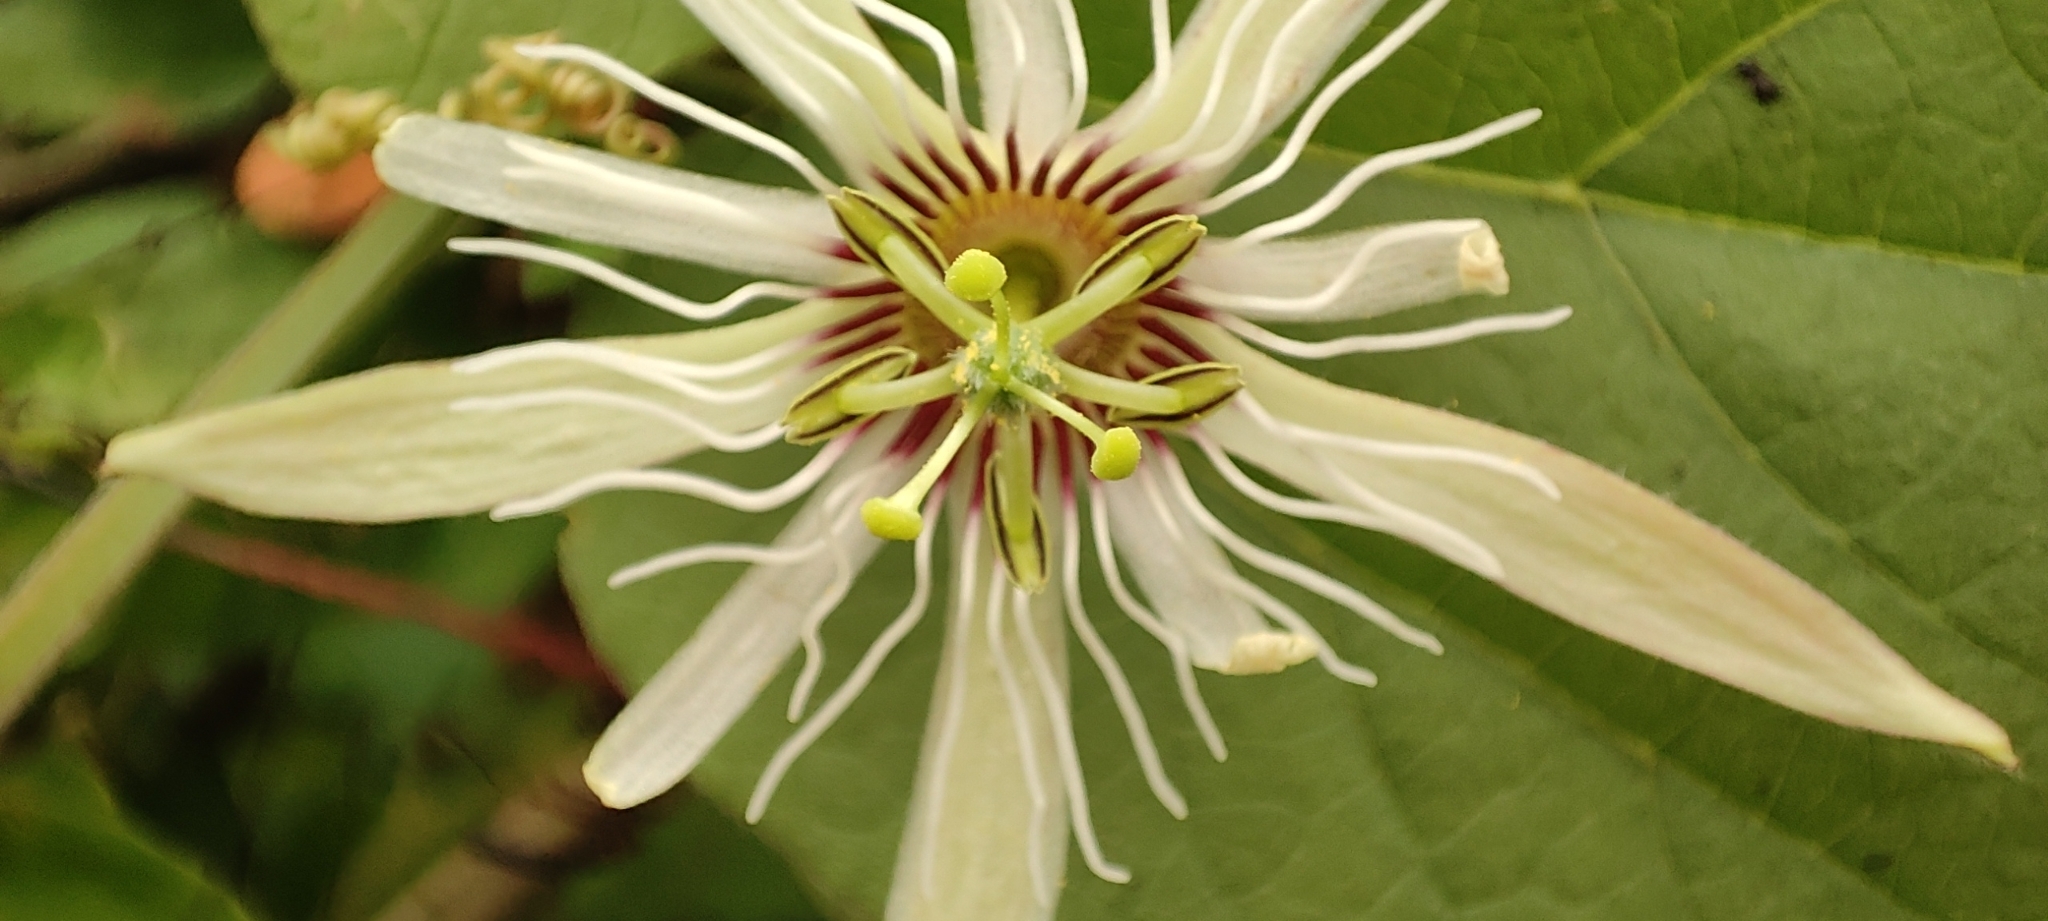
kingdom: Plantae
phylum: Tracheophyta
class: Magnoliopsida
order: Malpighiales
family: Passifloraceae
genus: Passiflora
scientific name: Passiflora cisnana
